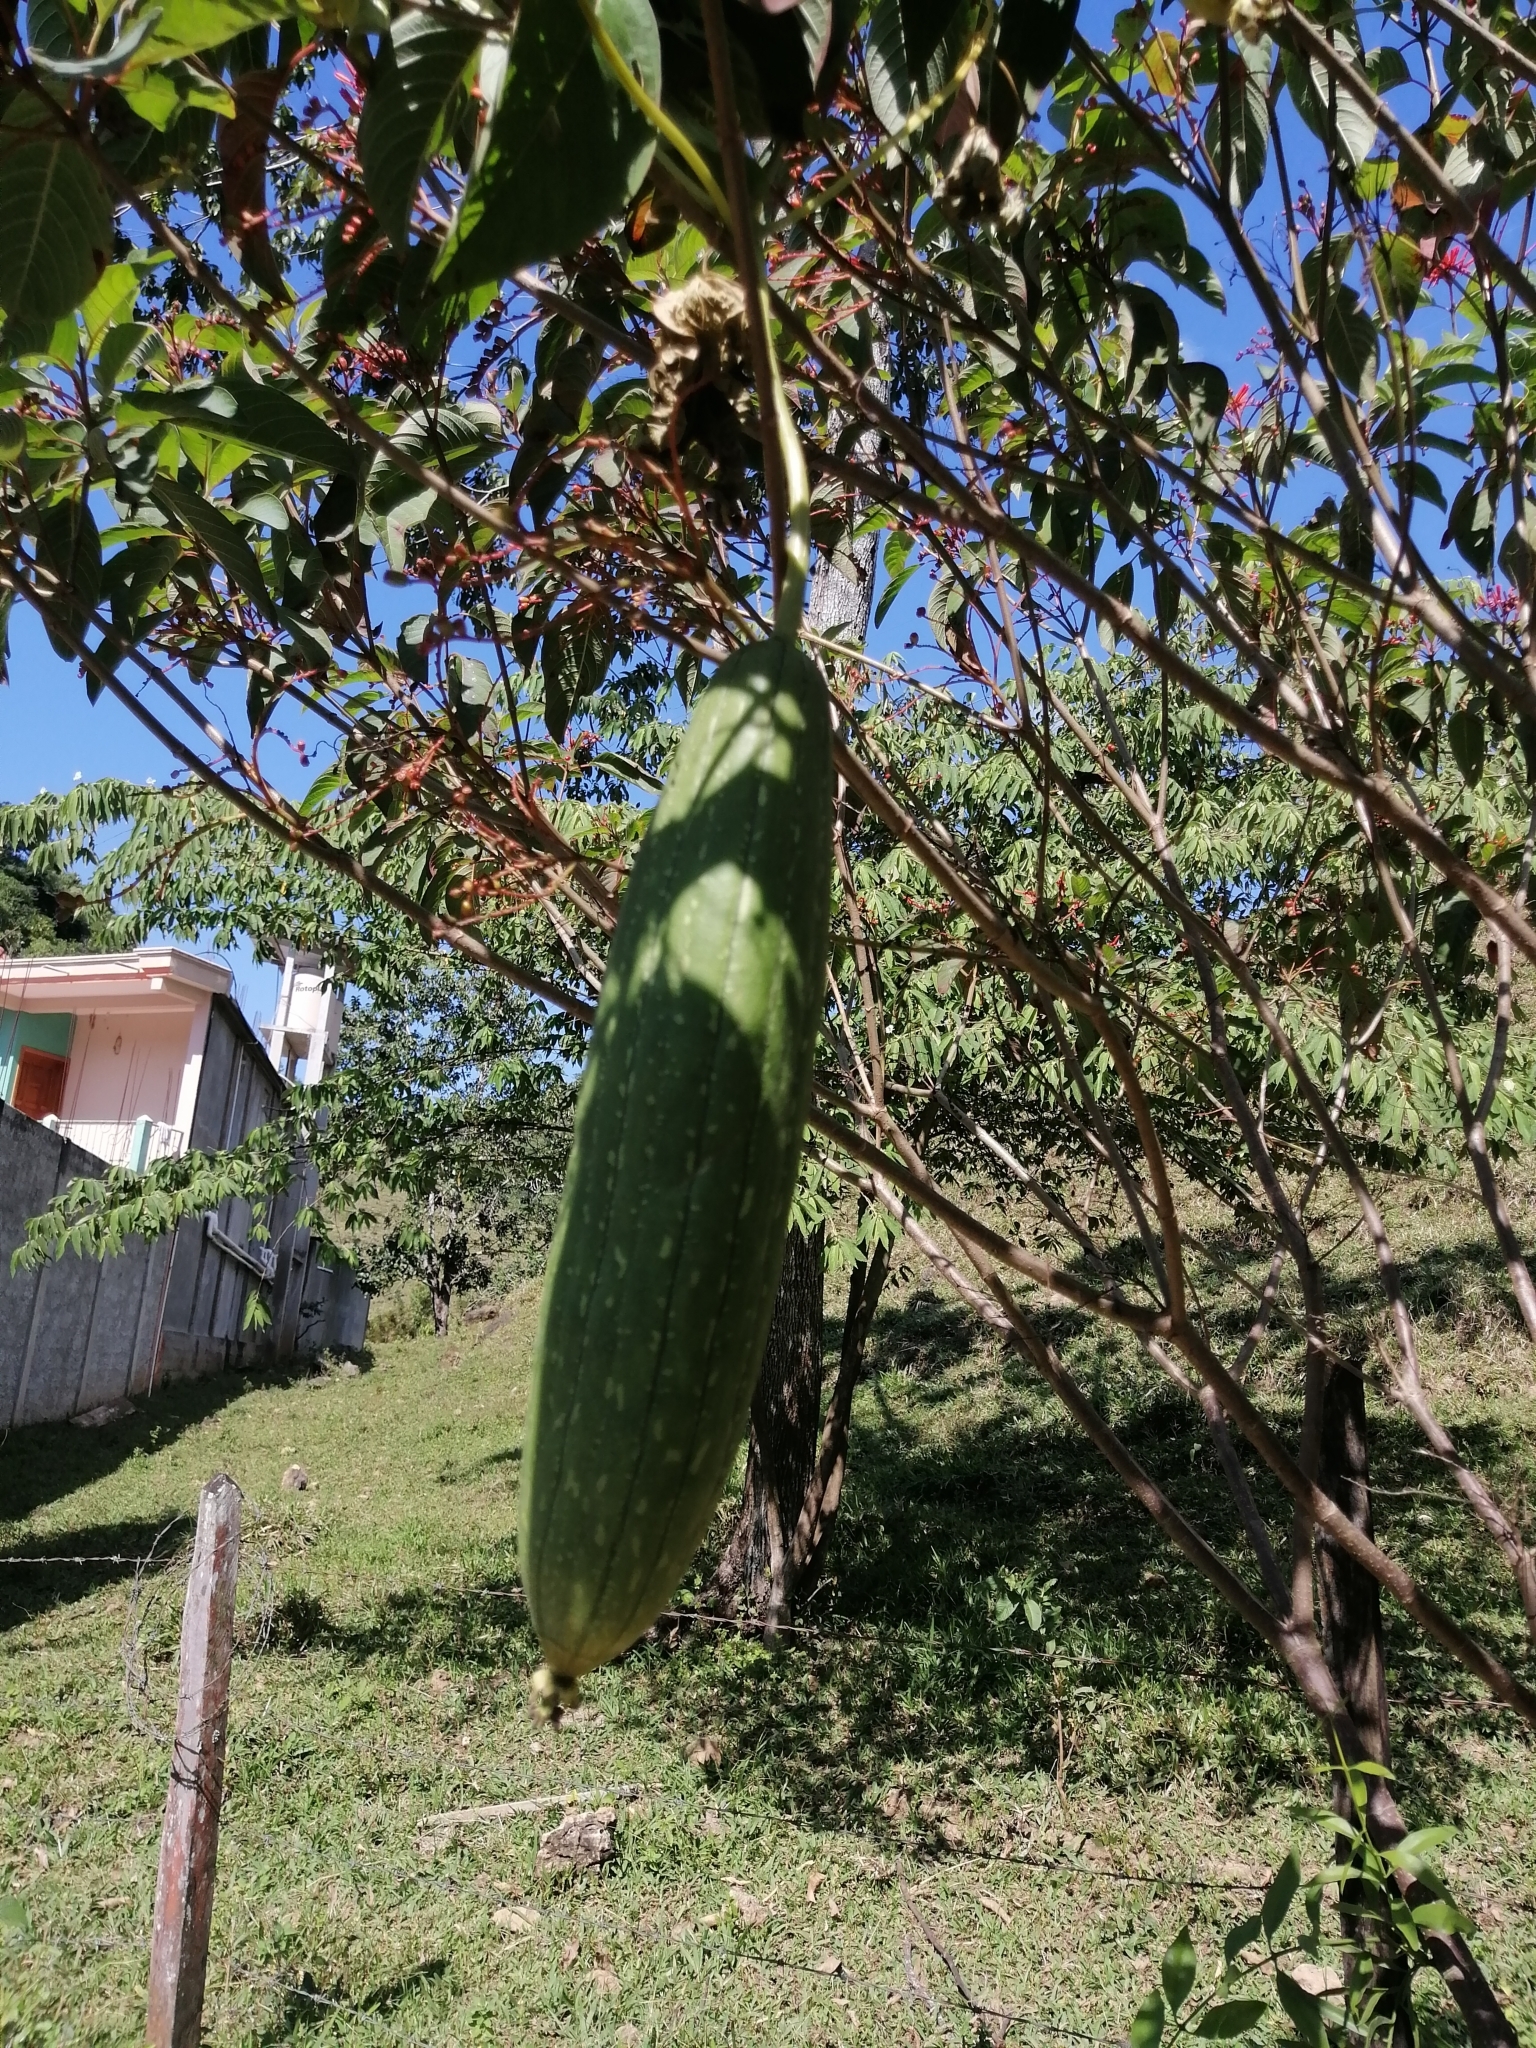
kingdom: Plantae
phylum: Tracheophyta
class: Magnoliopsida
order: Cucurbitales
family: Cucurbitaceae
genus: Luffa
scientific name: Luffa aegyptiaca
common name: Sponge gourd
